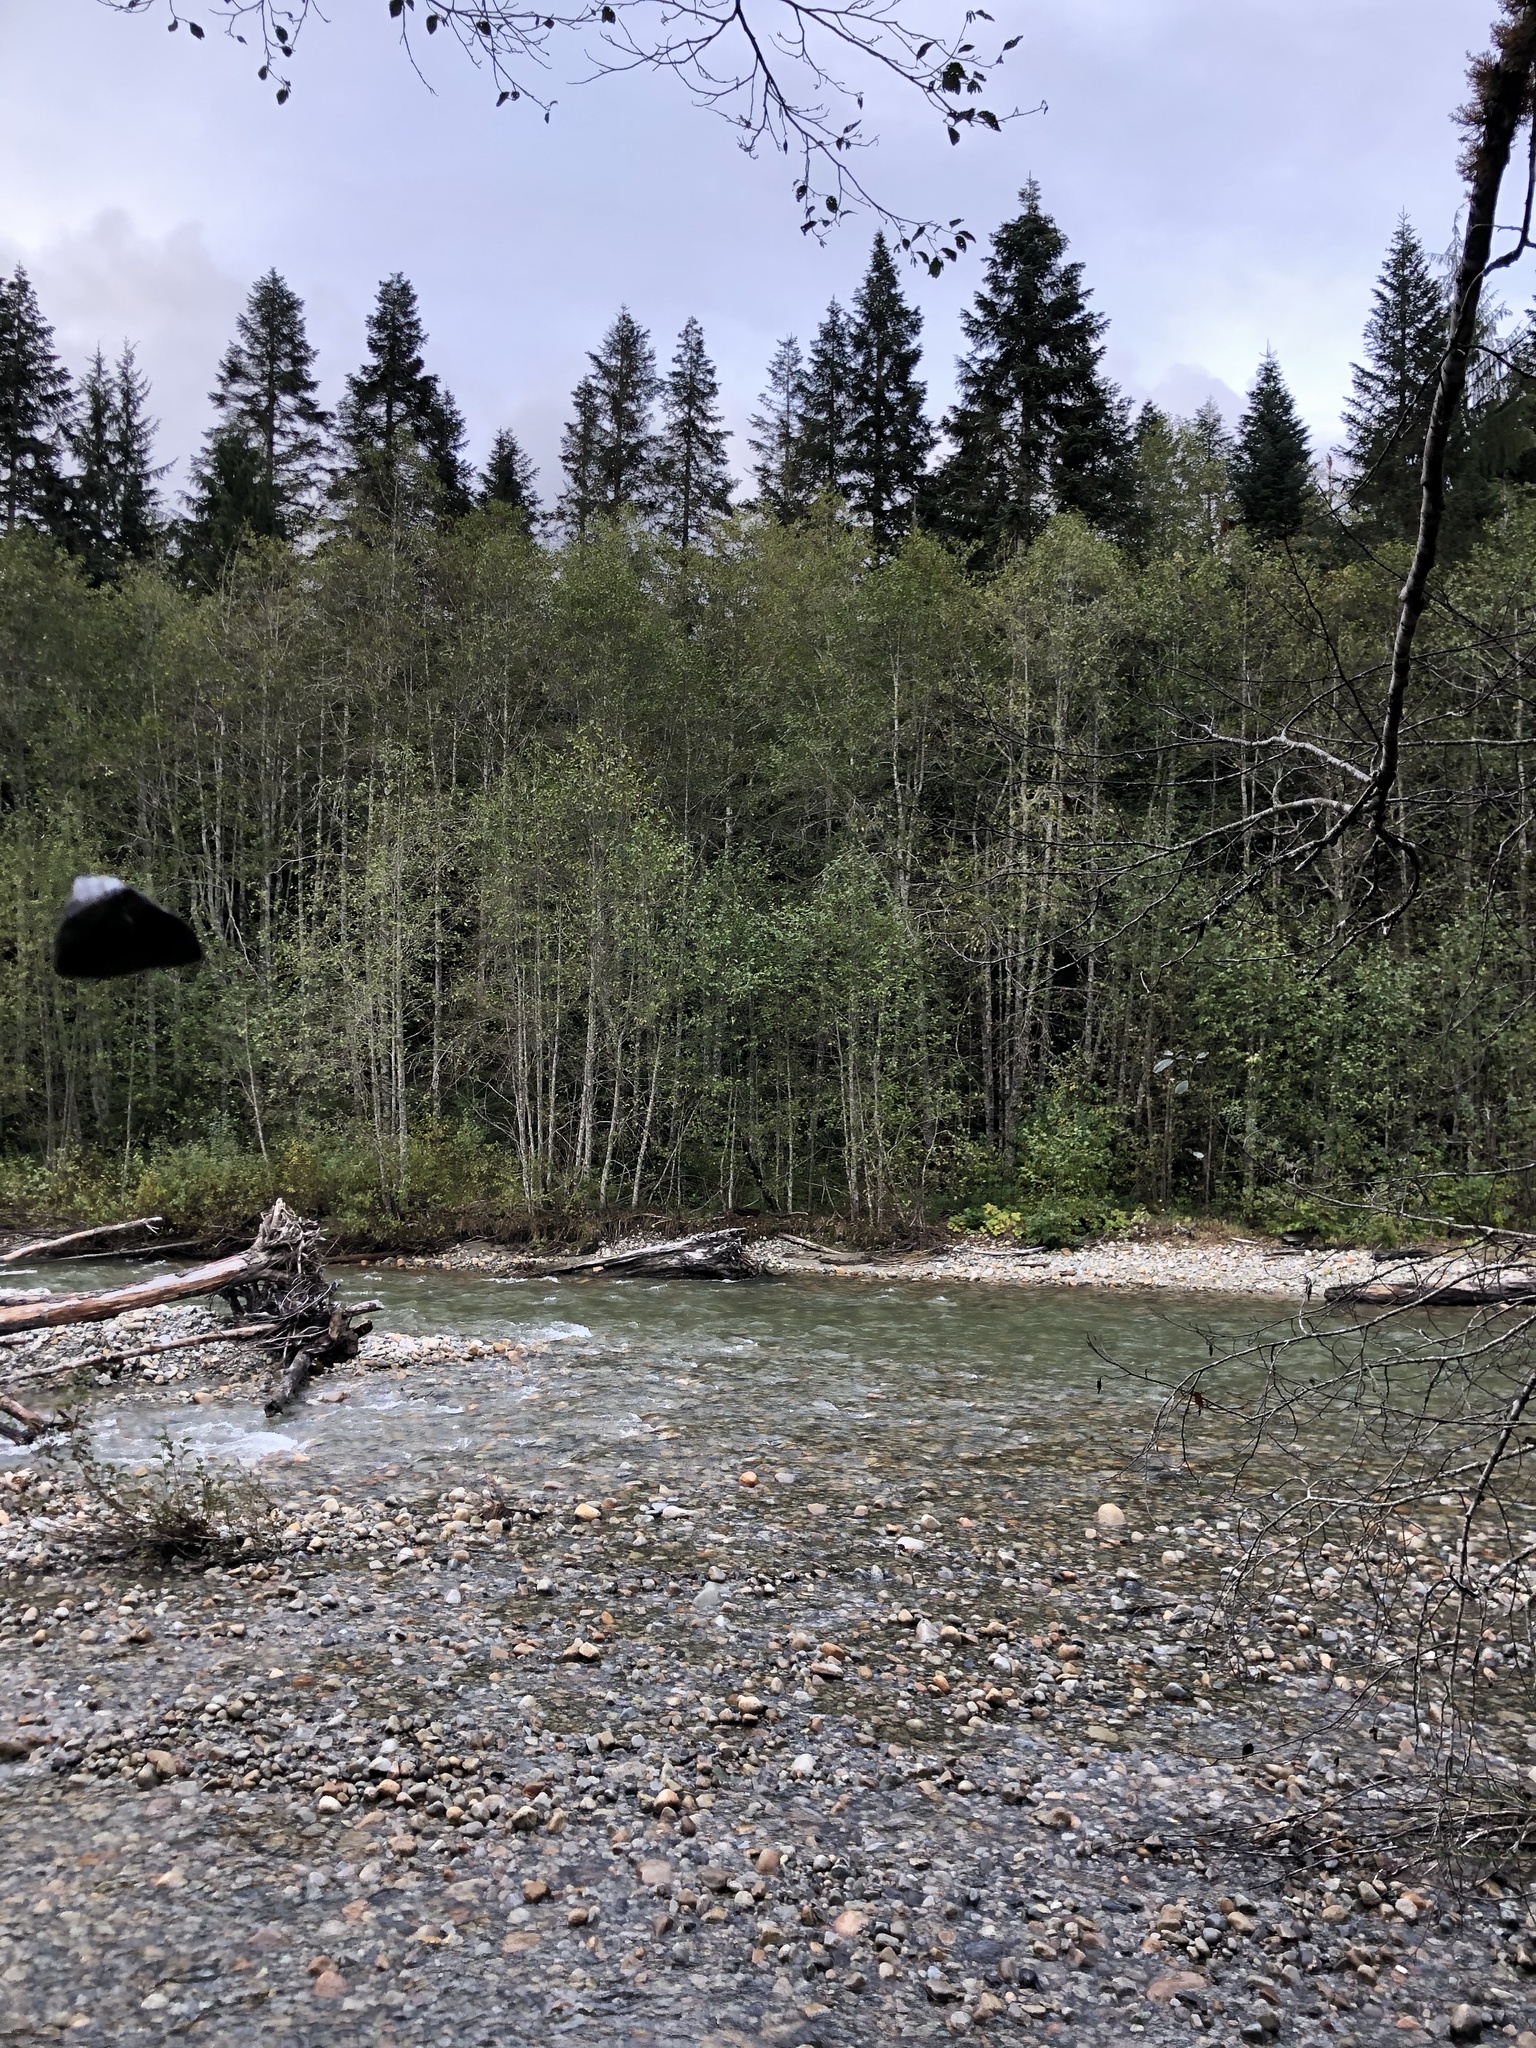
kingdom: Plantae
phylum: Tracheophyta
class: Pinopsida
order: Pinales
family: Pinaceae
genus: Abies
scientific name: Abies amabilis
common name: Pacific silver fir
